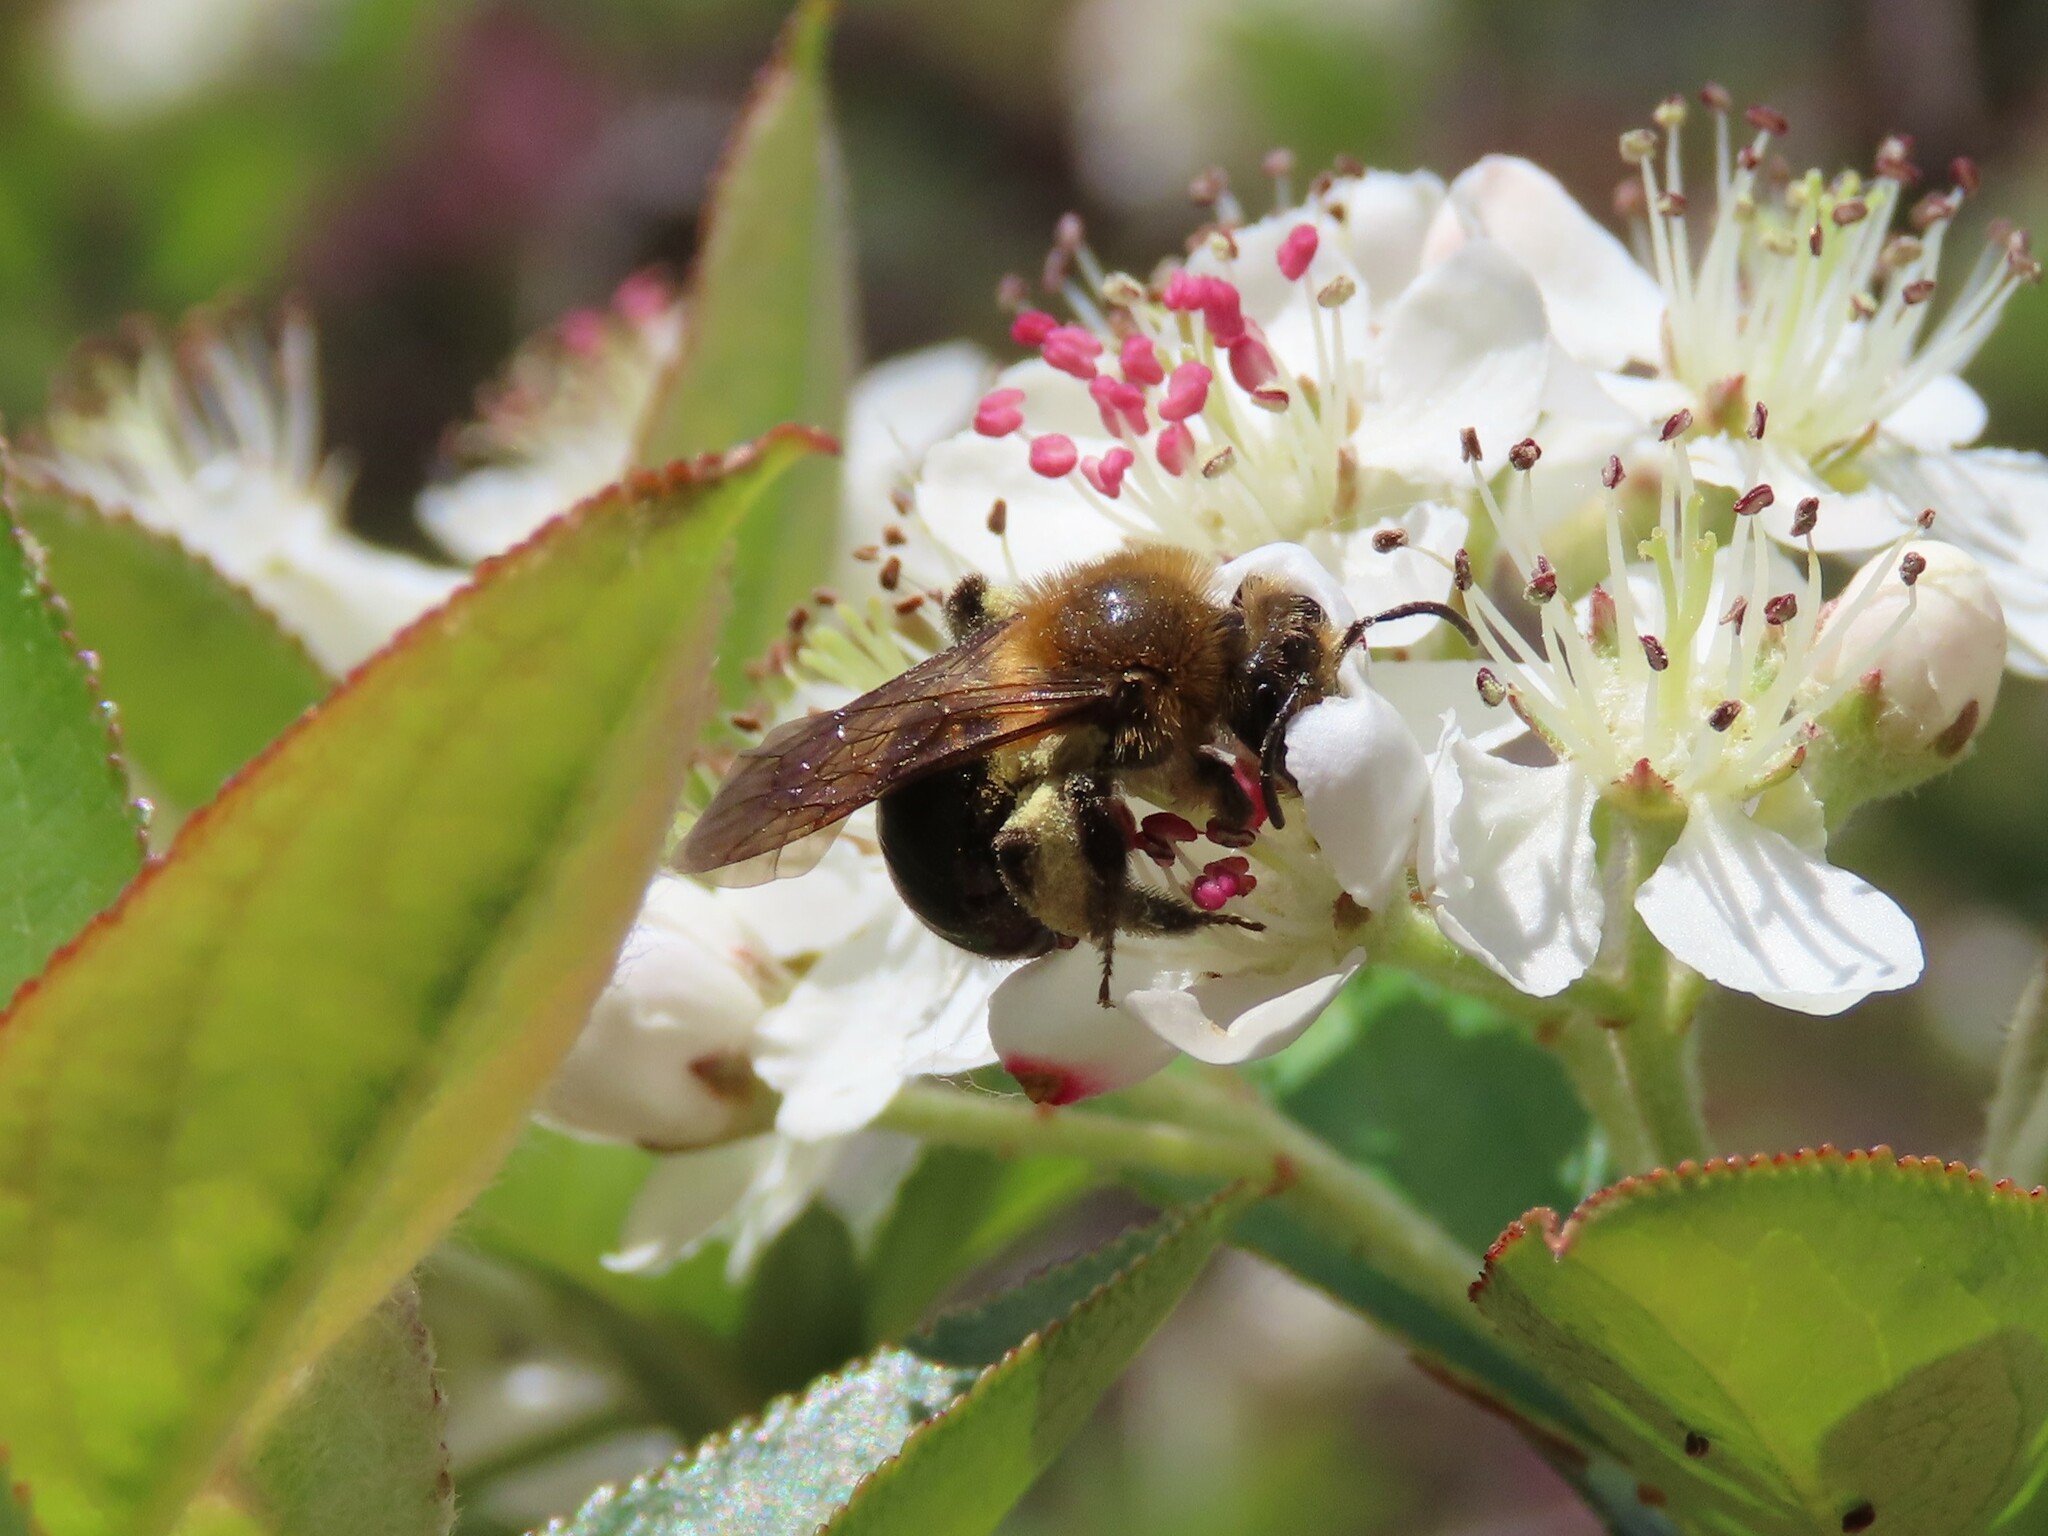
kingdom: Animalia
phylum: Arthropoda
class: Insecta
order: Hymenoptera
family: Andrenidae
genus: Andrena
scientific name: Andrena dunningi
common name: Dunning's miner
